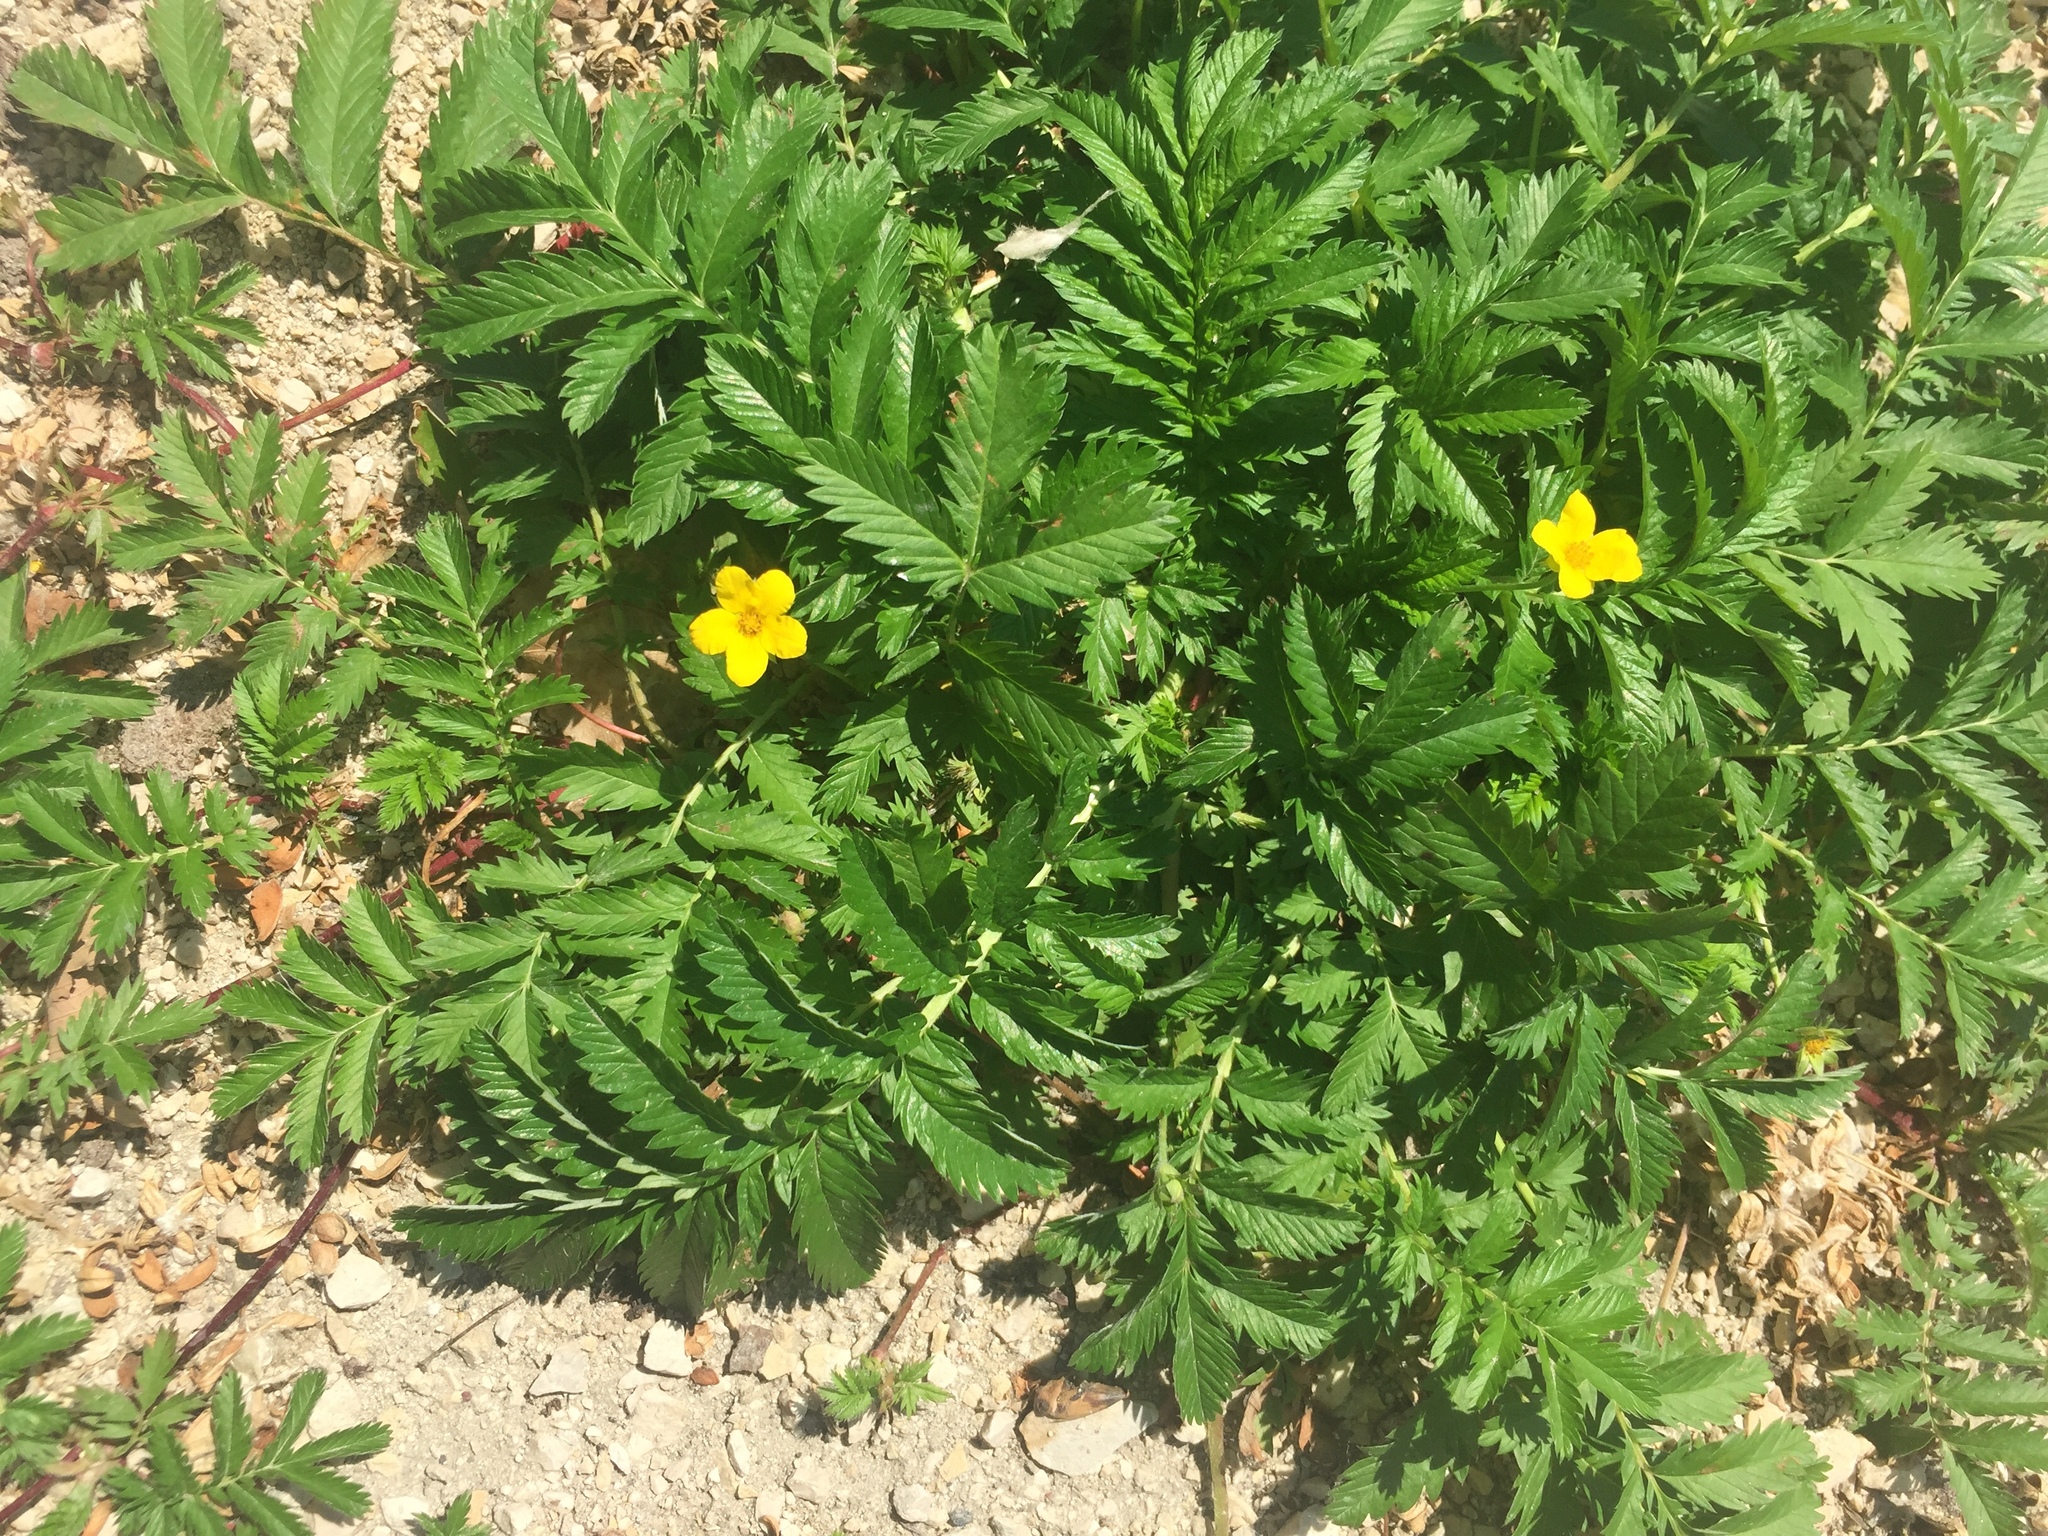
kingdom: Plantae
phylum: Tracheophyta
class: Magnoliopsida
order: Rosales
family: Rosaceae
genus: Argentina
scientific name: Argentina anserina
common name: Common silverweed
